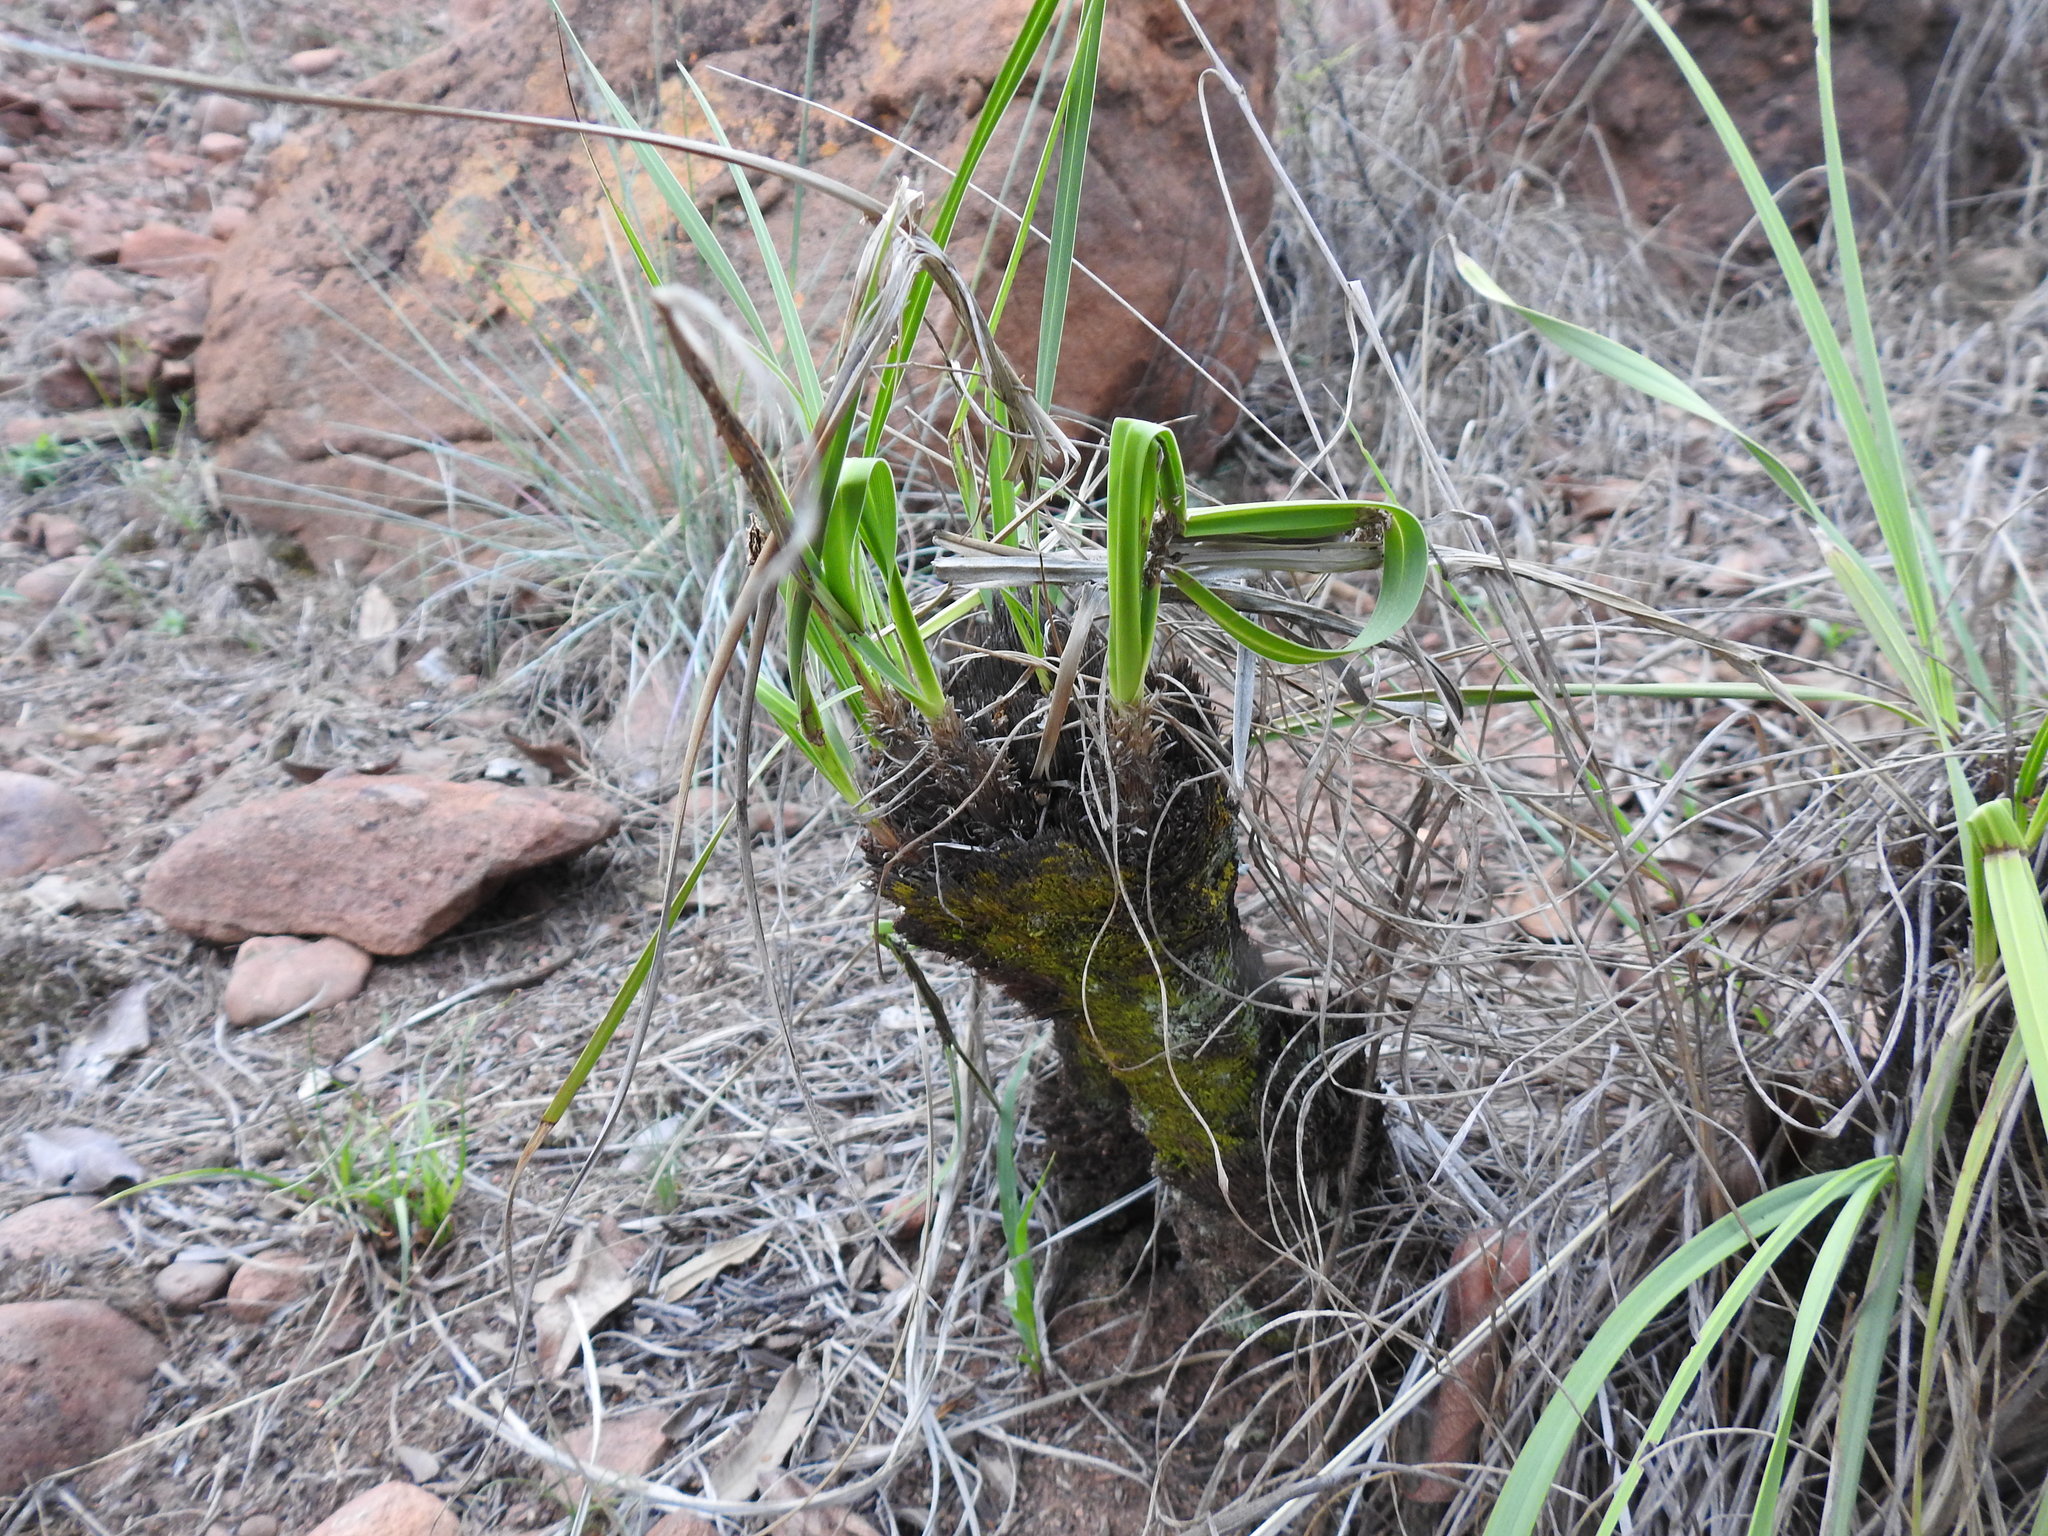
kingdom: Plantae
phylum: Tracheophyta
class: Liliopsida
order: Pandanales
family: Velloziaceae
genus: Xerophyta
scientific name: Xerophyta retinervis
